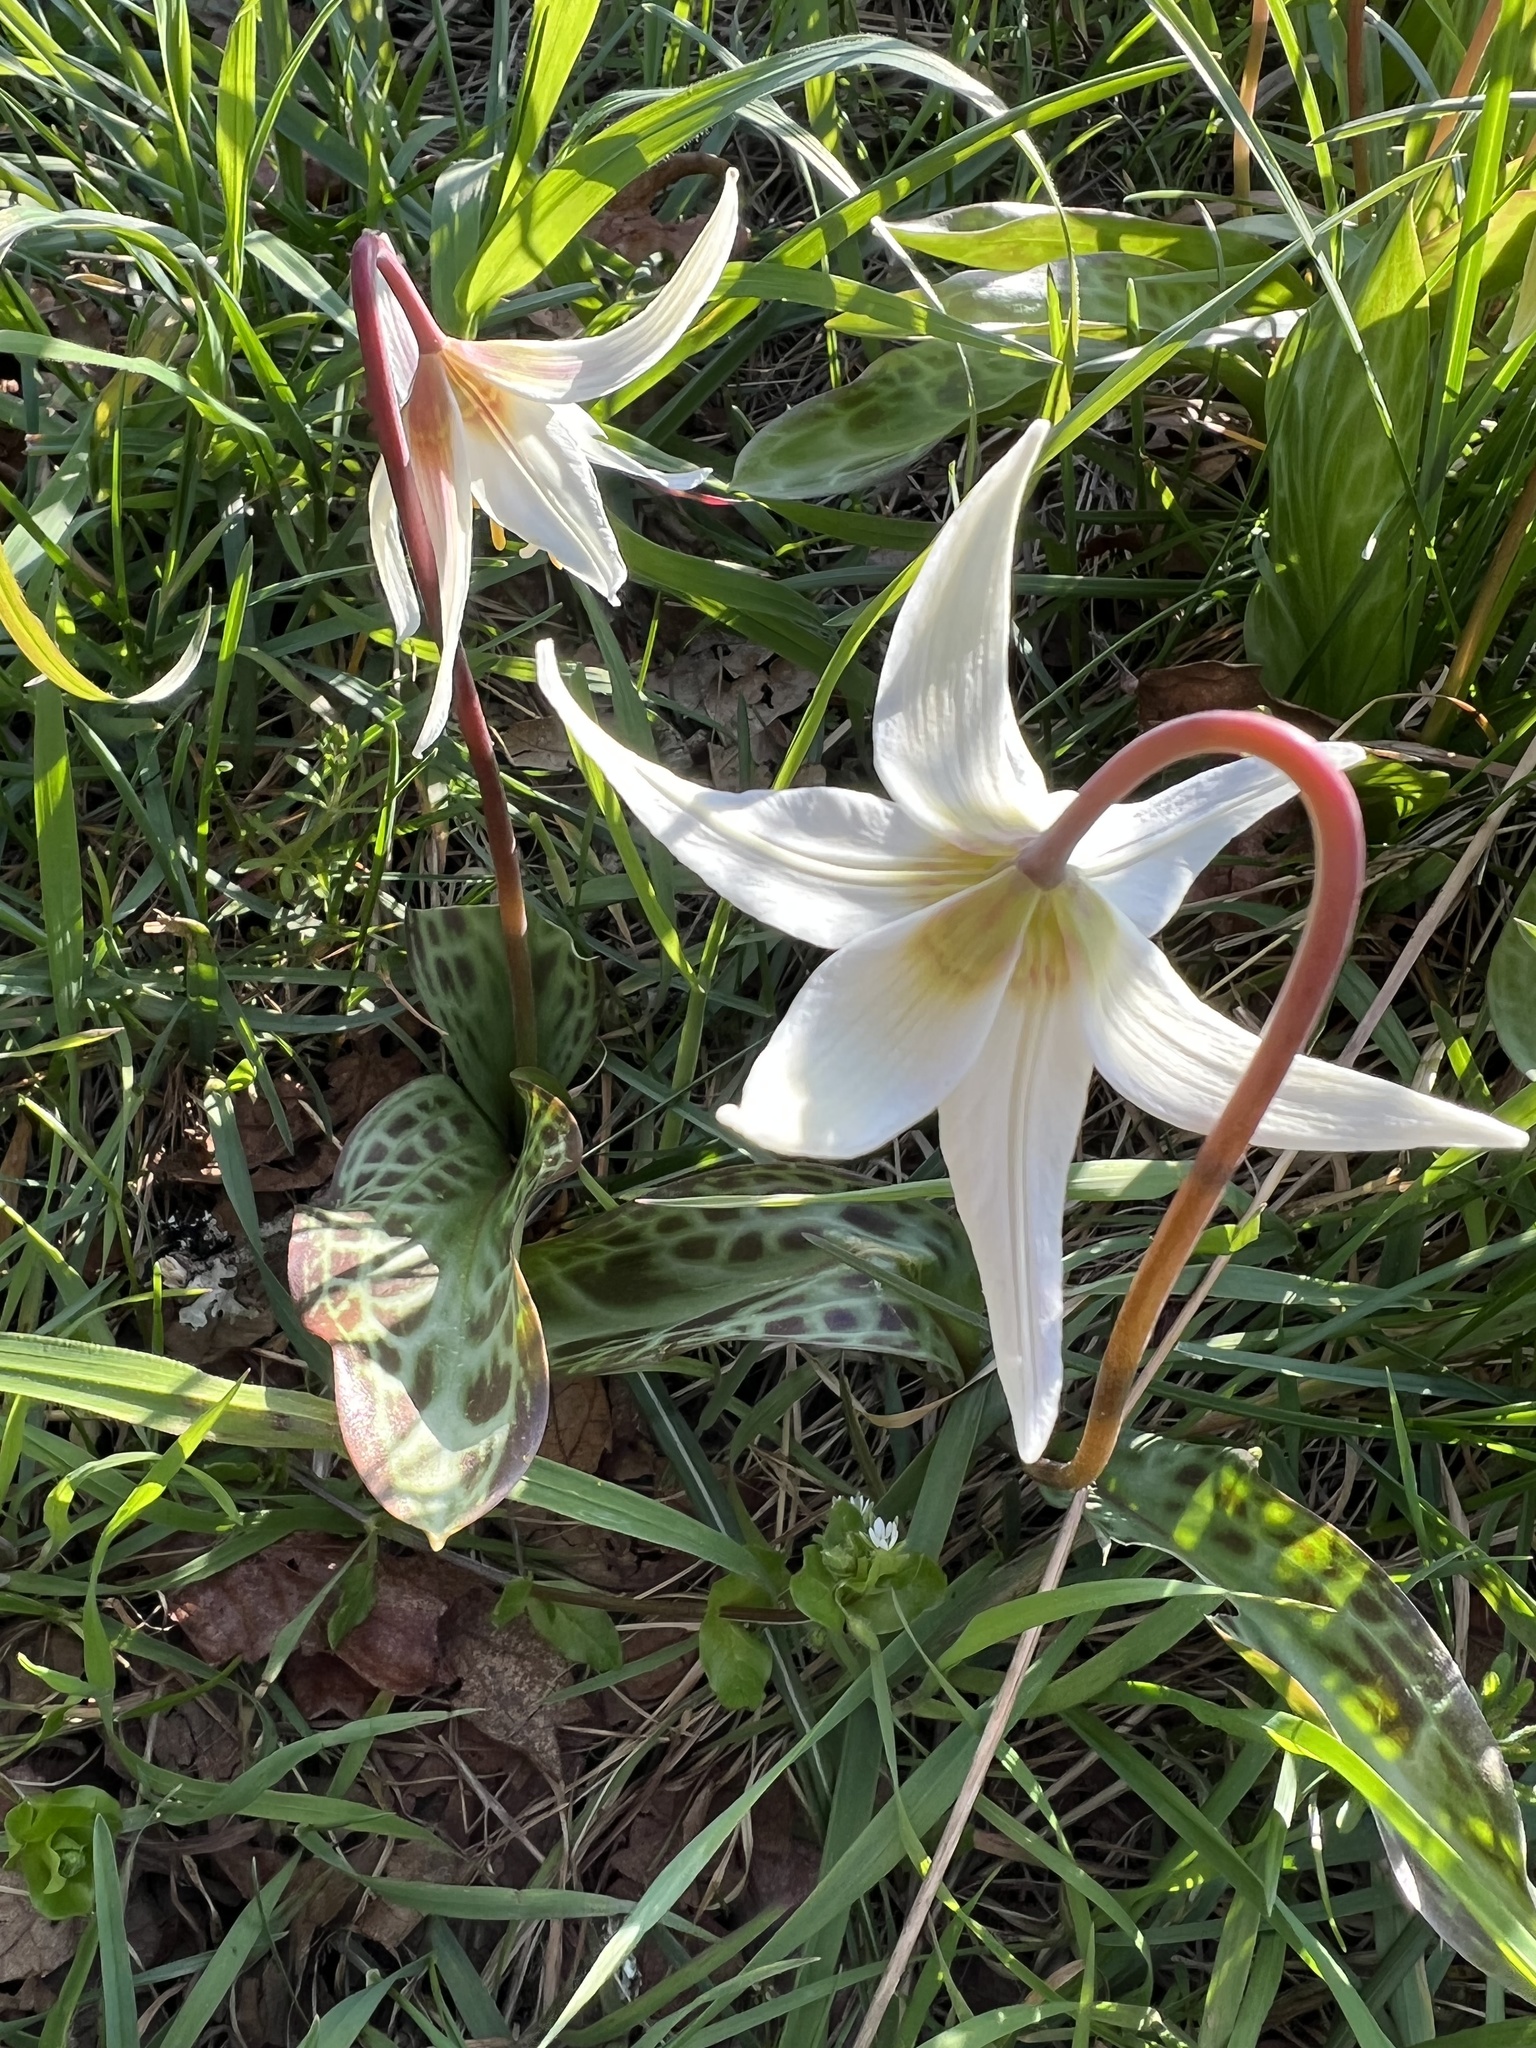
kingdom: Plantae
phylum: Tracheophyta
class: Liliopsida
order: Liliales
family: Liliaceae
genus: Erythronium
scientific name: Erythronium oregonum
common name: Giant adder's-tongue
